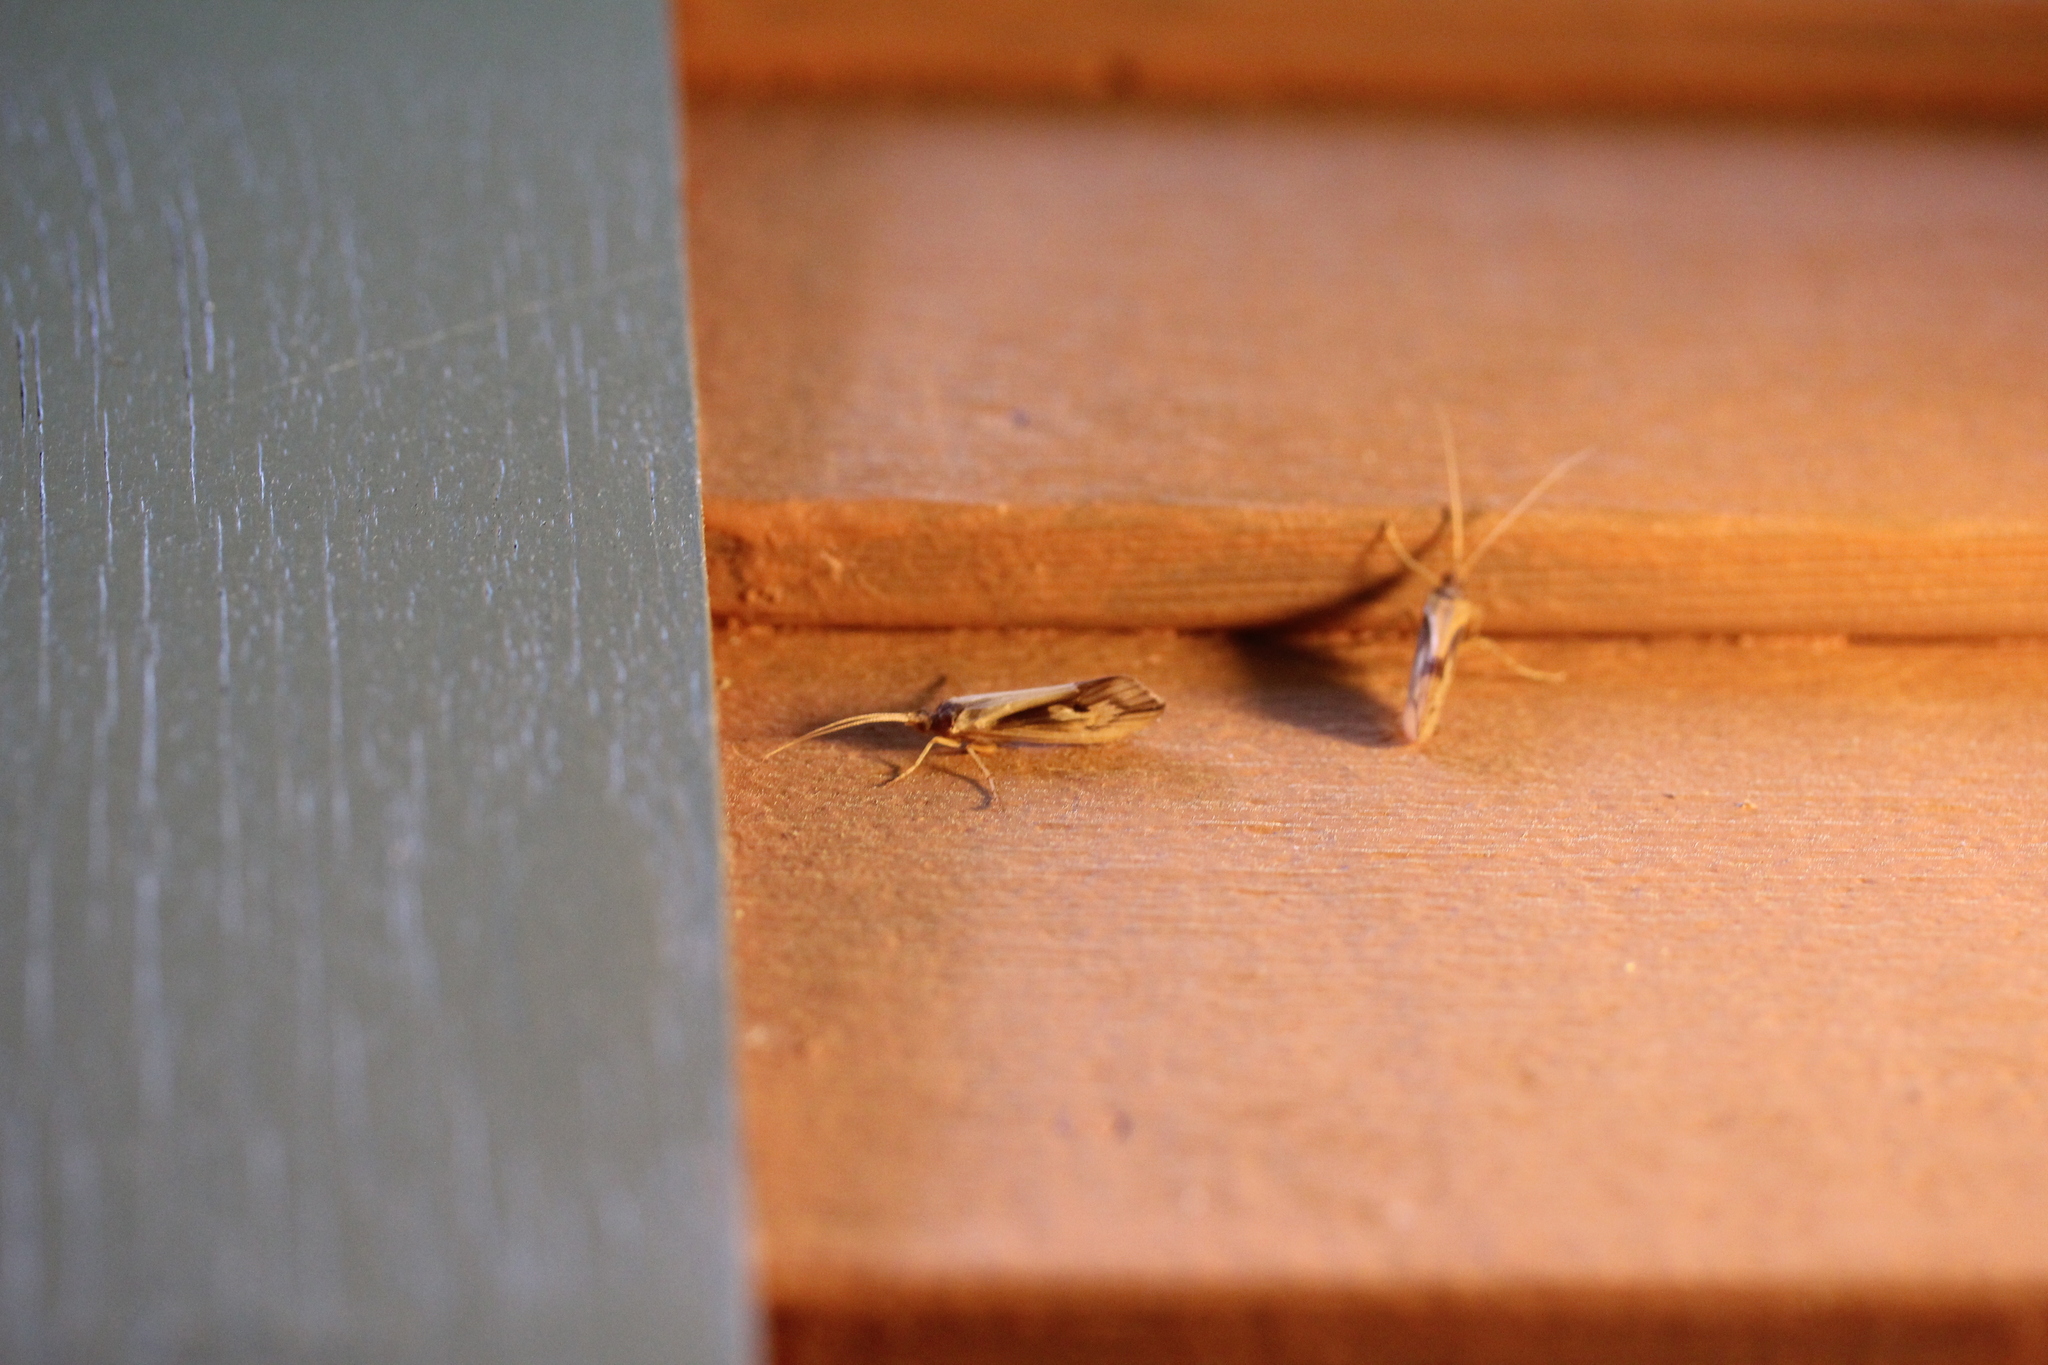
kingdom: Animalia
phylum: Arthropoda
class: Insecta
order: Trichoptera
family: Limnephilidae
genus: Platycentropus
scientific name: Platycentropus radiatus
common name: Chocolate-and-cream sedge
